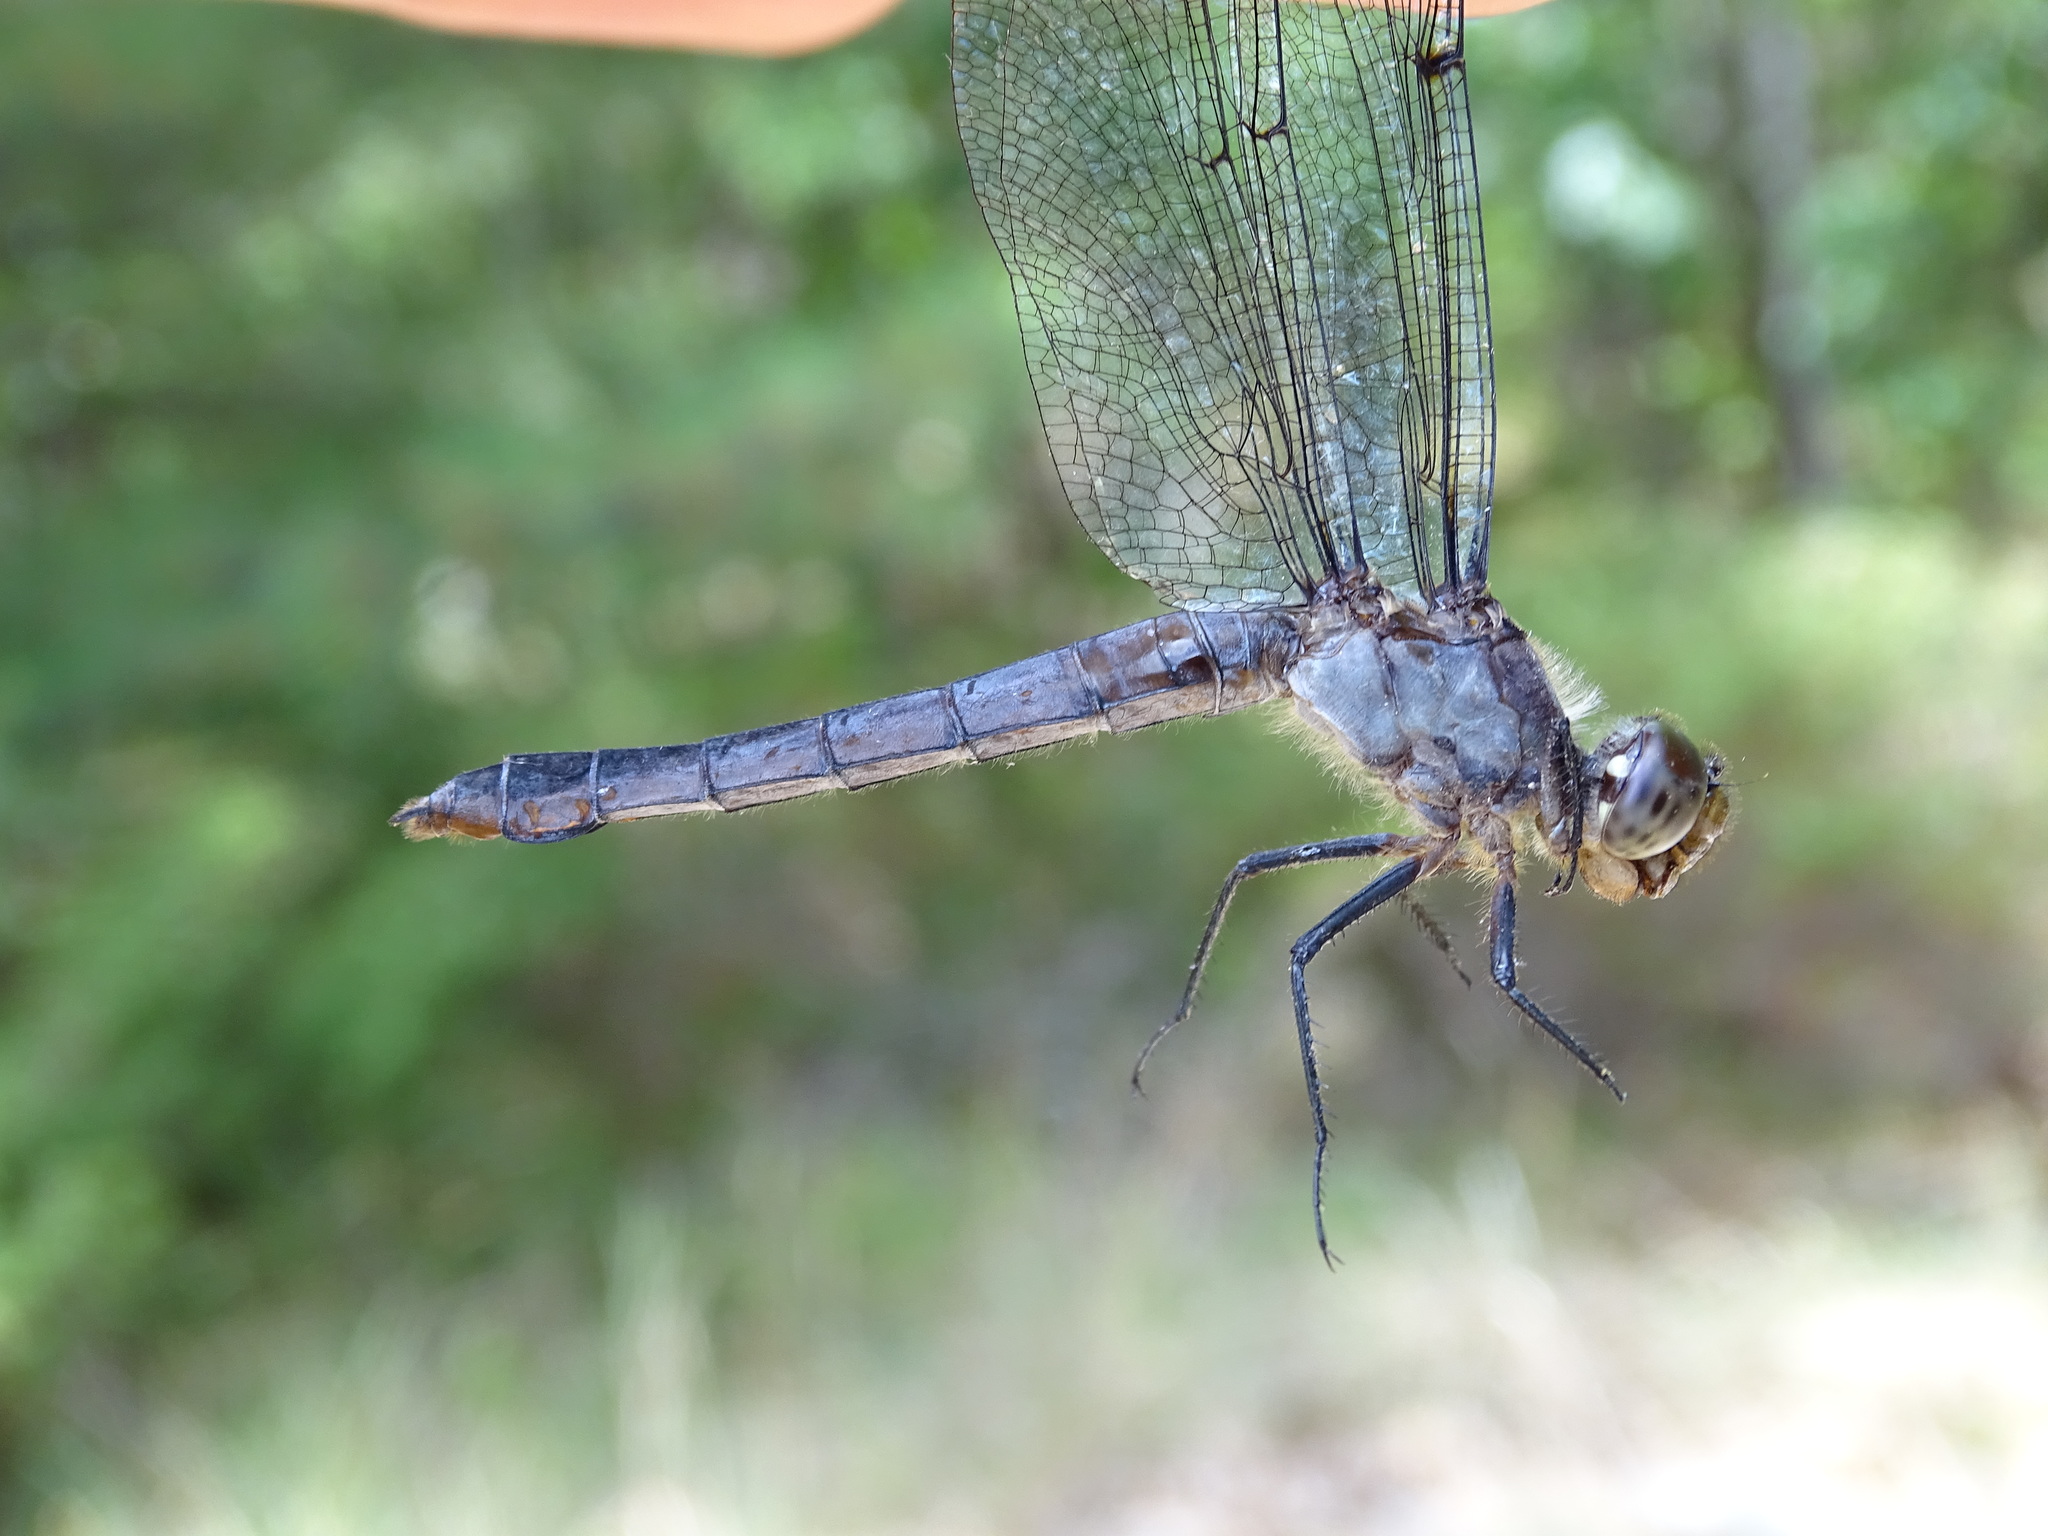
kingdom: Animalia
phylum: Arthropoda
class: Insecta
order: Odonata
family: Libellulidae
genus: Libellula
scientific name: Libellula incesta
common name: Slaty skimmer
